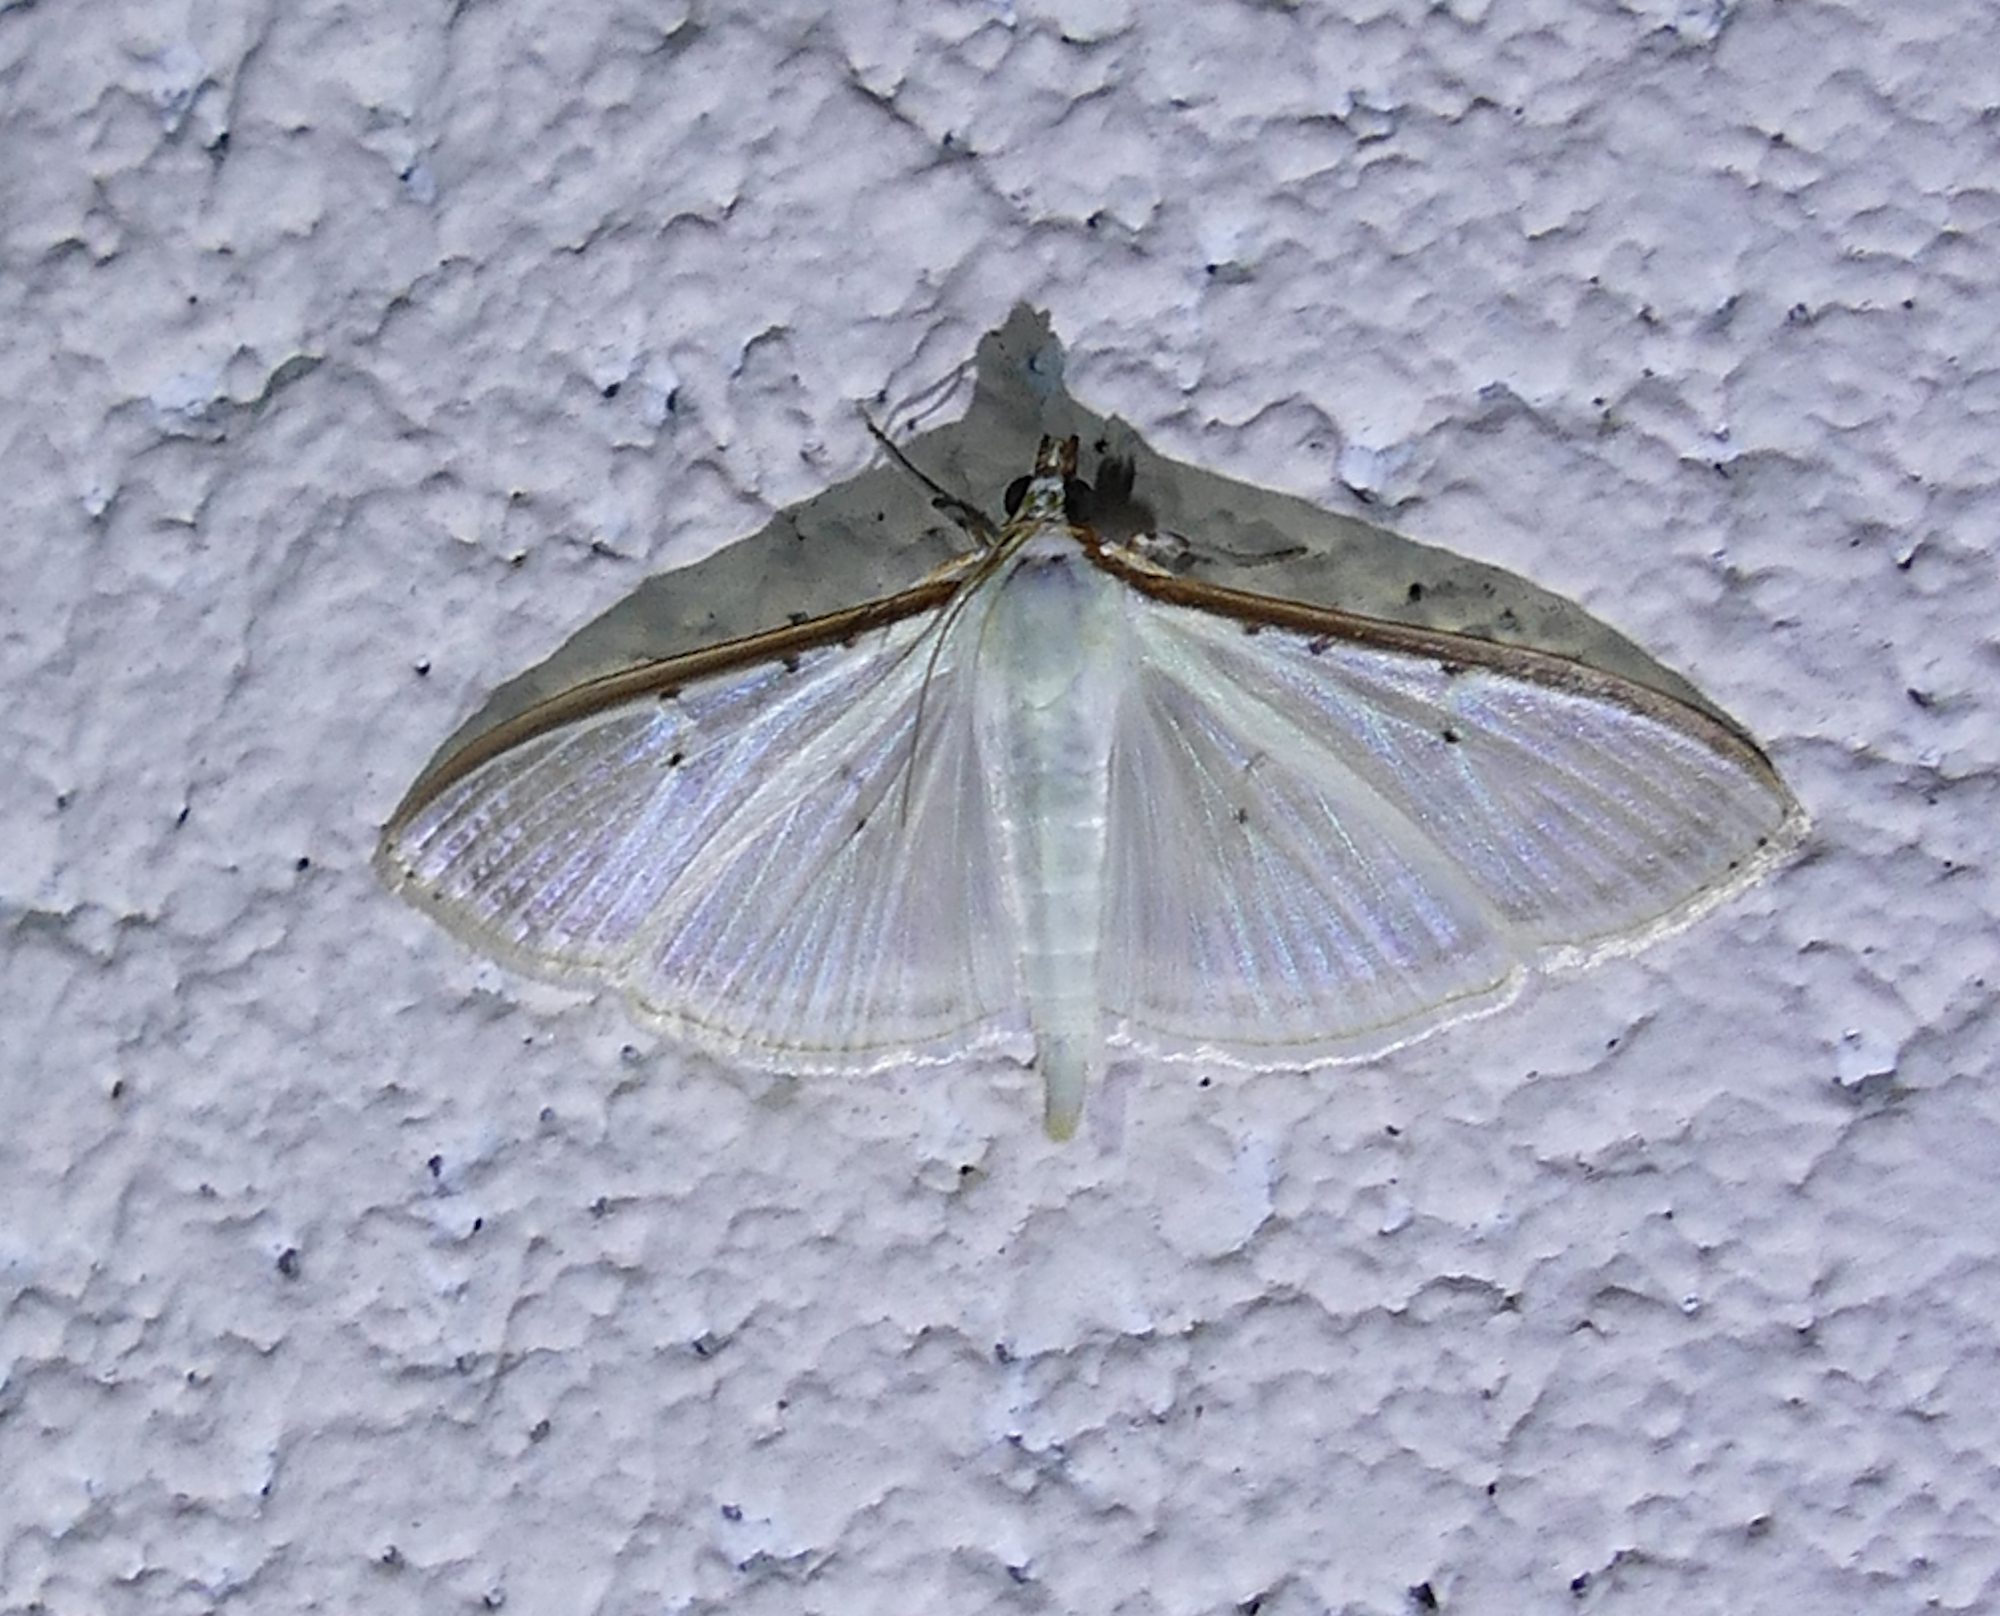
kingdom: Animalia
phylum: Arthropoda
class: Insecta
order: Lepidoptera
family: Crambidae
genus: Palpita
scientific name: Palpita quadristigmalis
